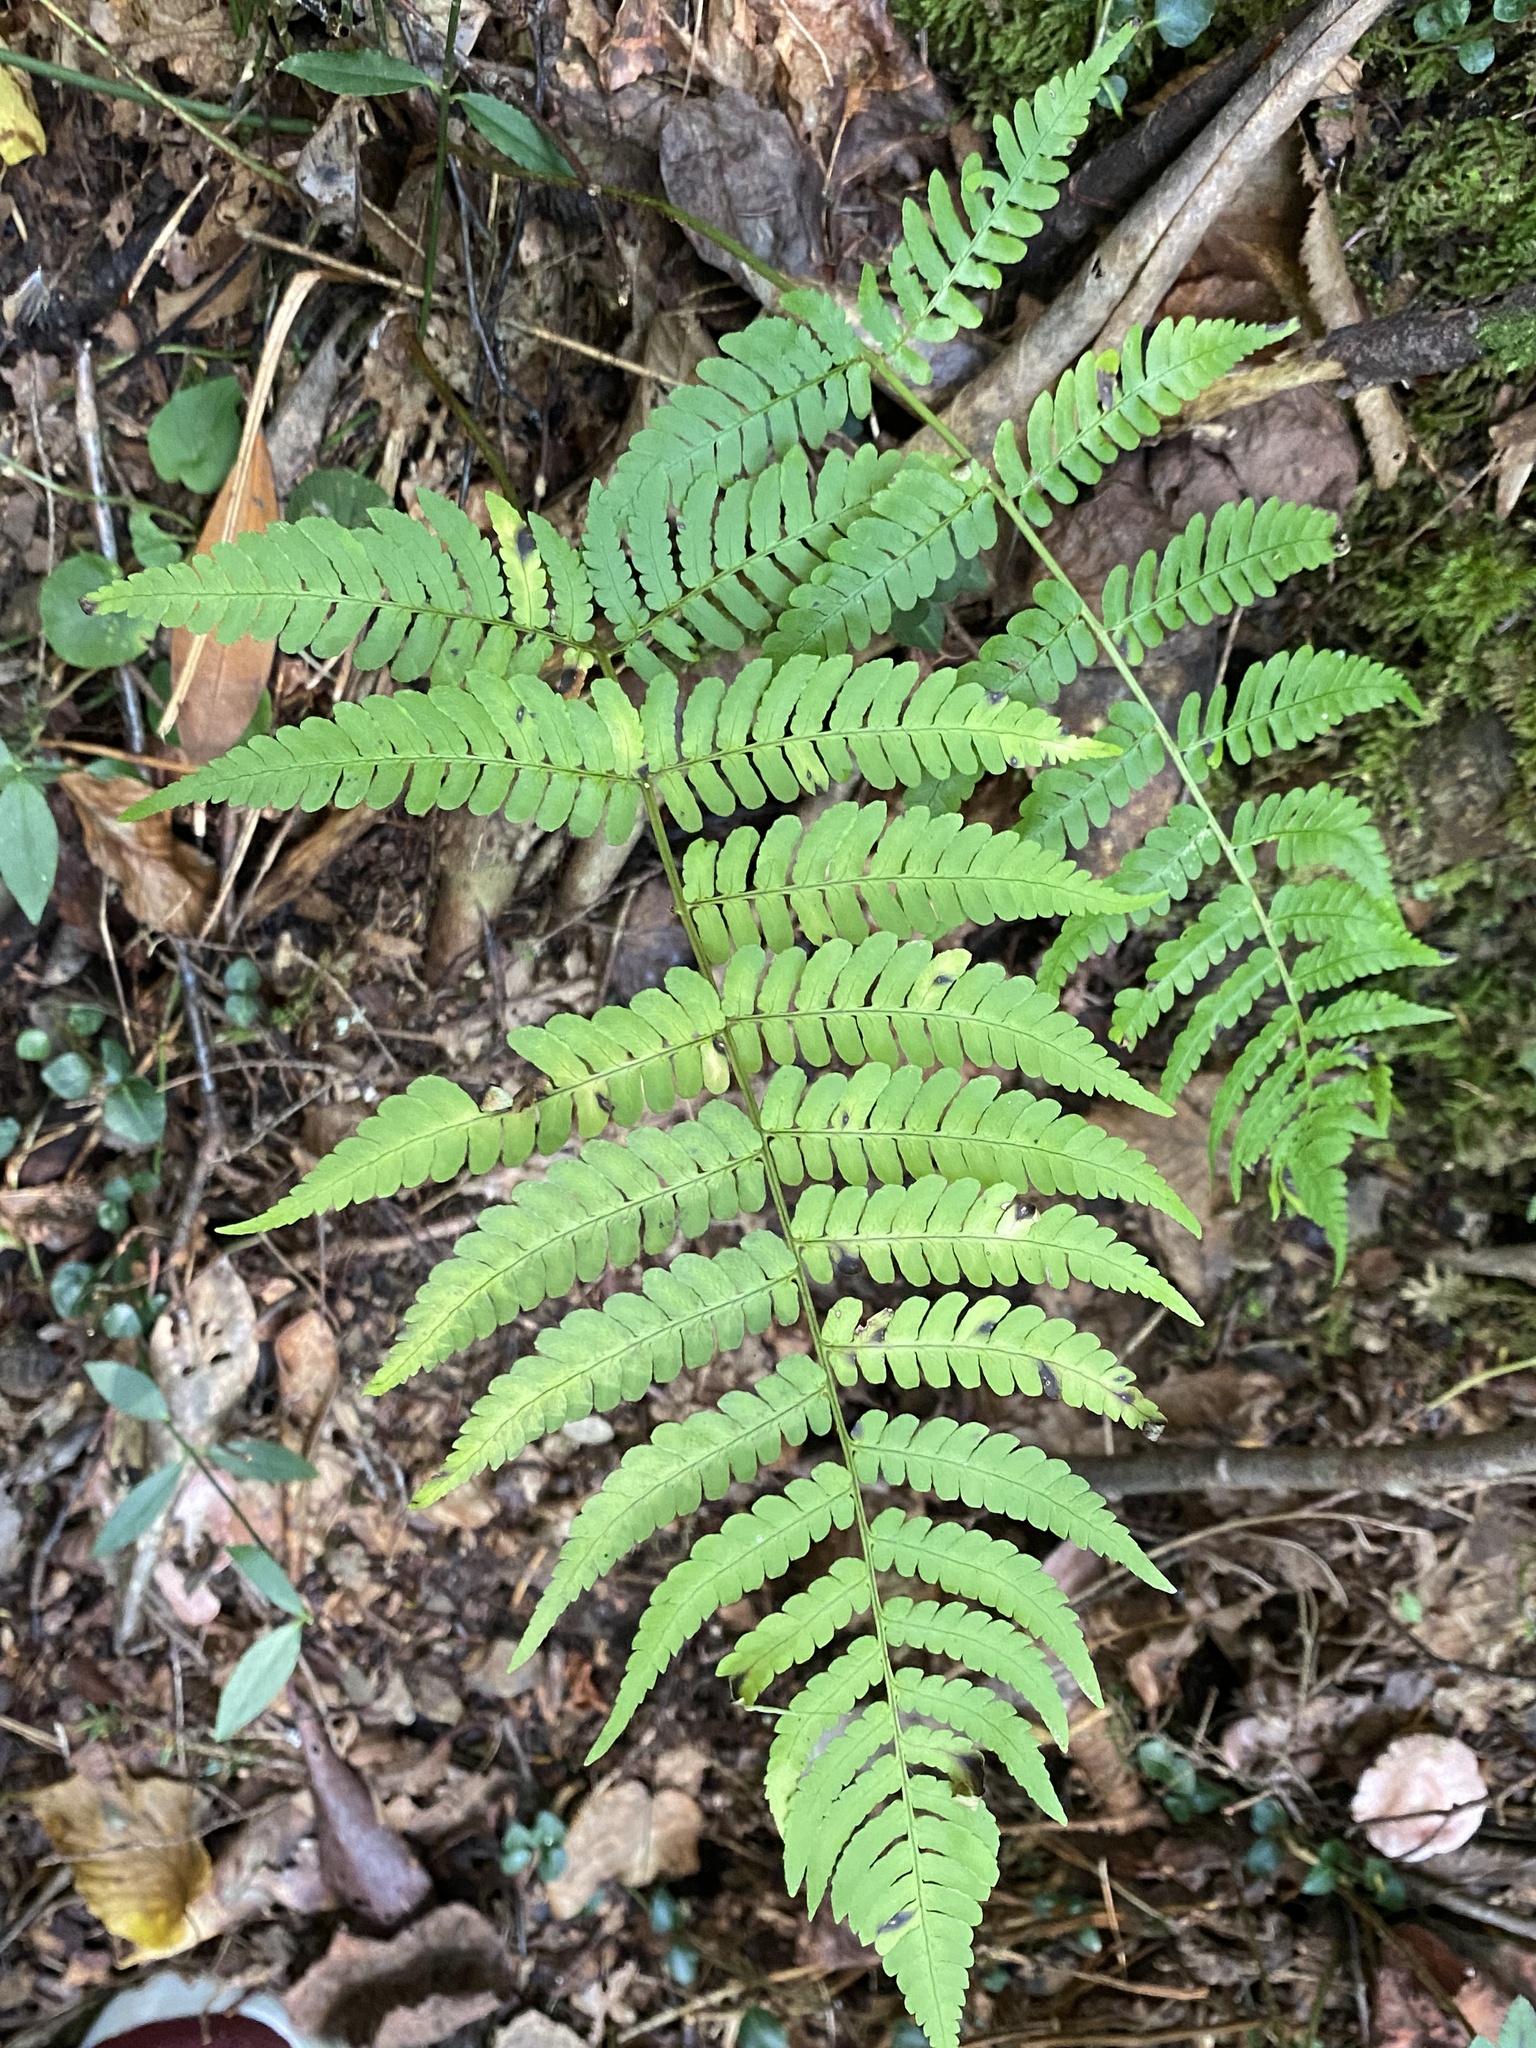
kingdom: Plantae
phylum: Tracheophyta
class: Polypodiopsida
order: Polypodiales
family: Dryopteridaceae
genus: Dryopteris
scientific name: Dryopteris marginalis
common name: Marginal wood fern
